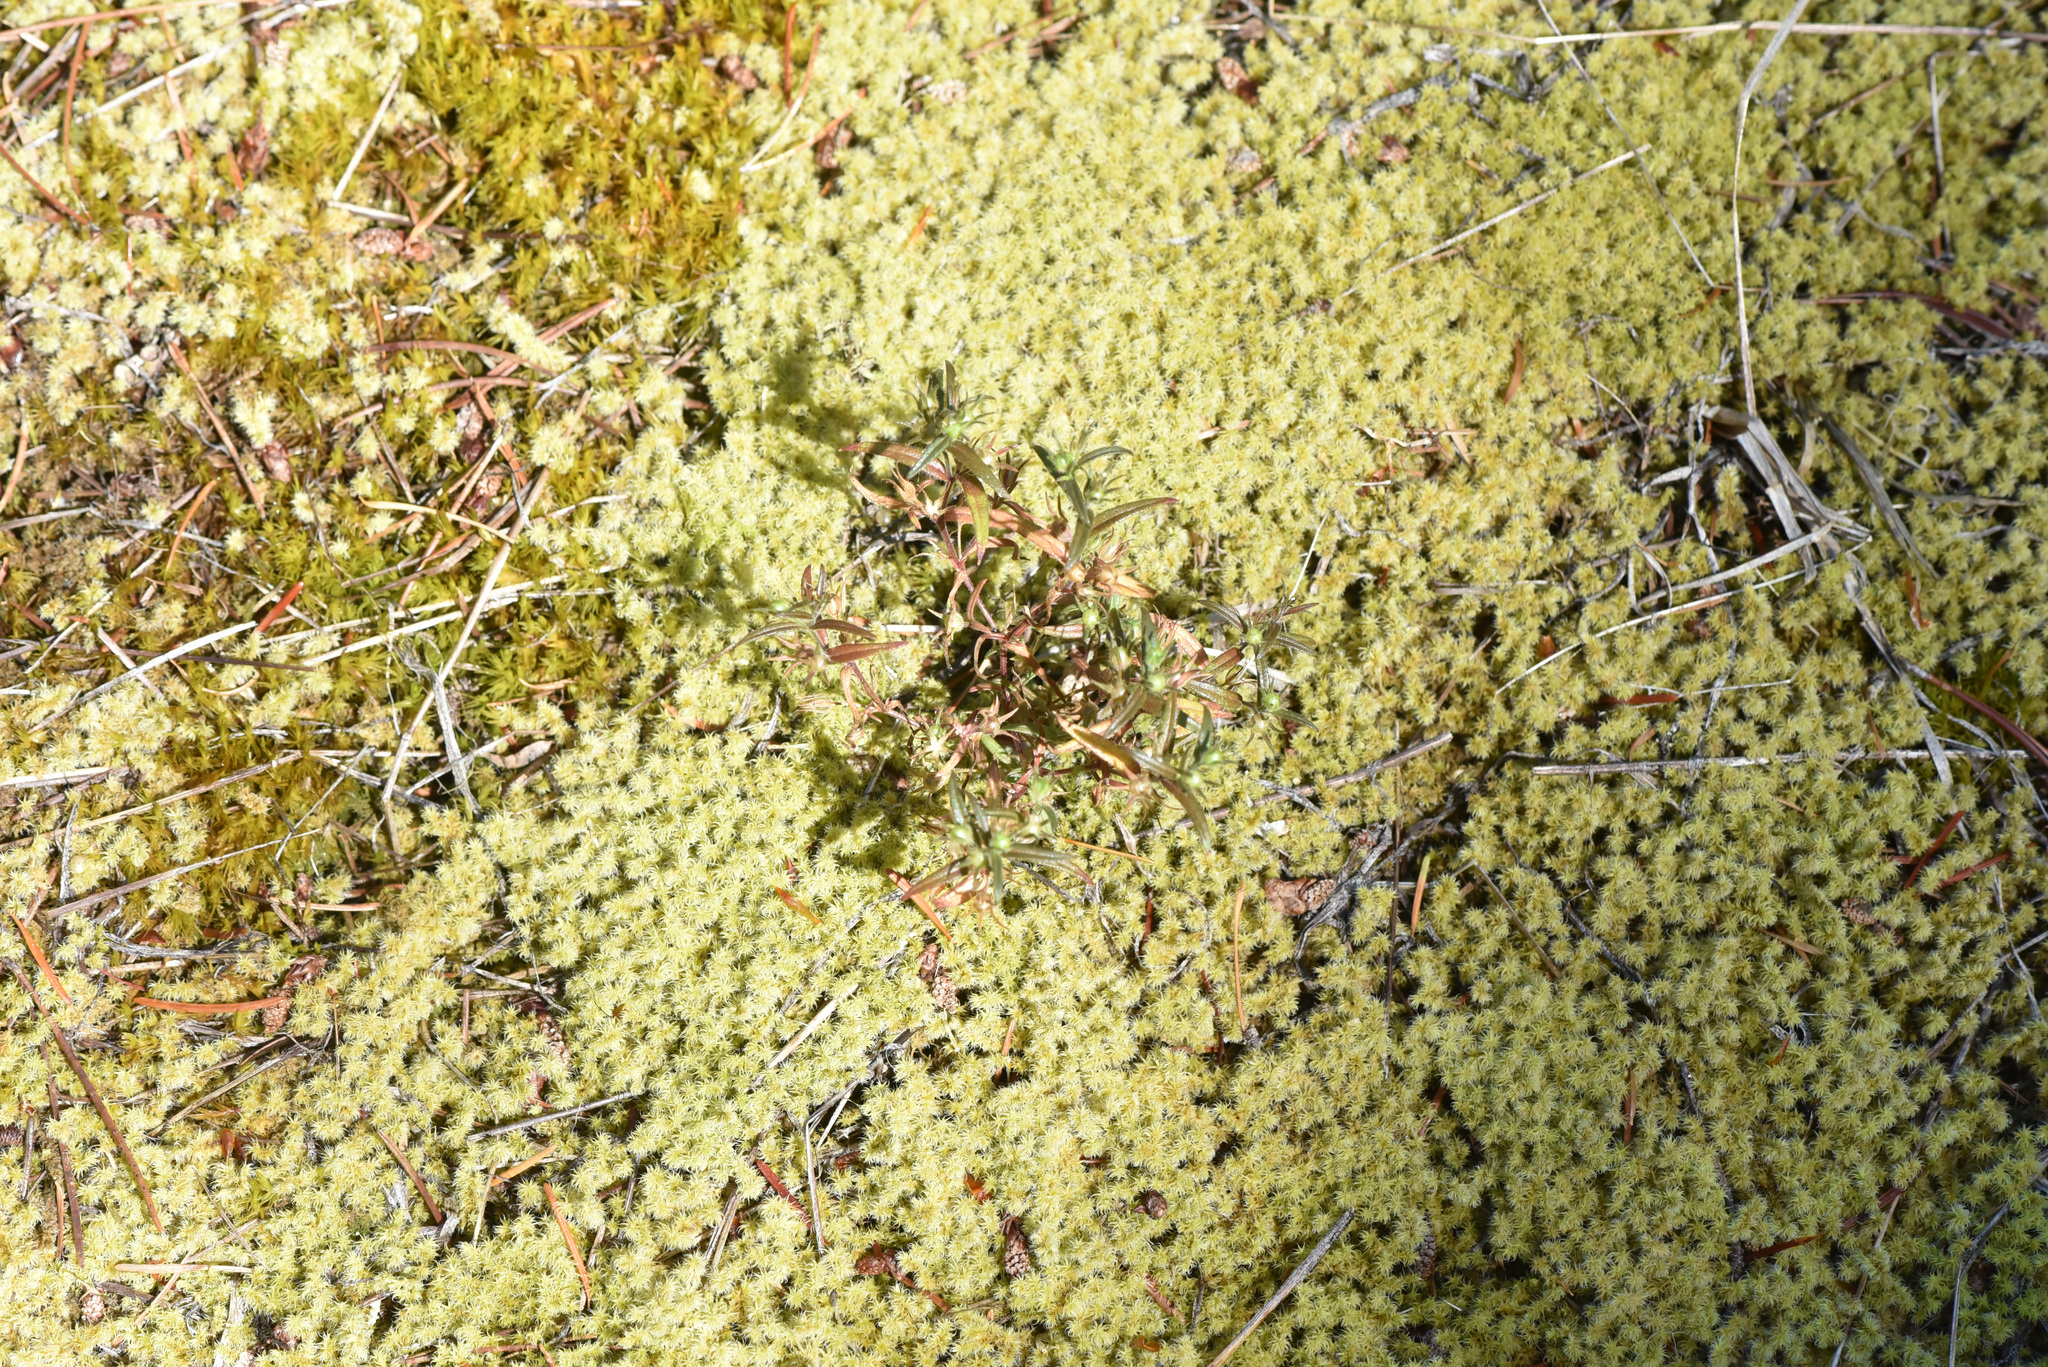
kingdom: Plantae
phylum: Tracheophyta
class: Magnoliopsida
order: Ericales
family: Polemoniaceae
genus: Phlox
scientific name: Phlox gracilis
